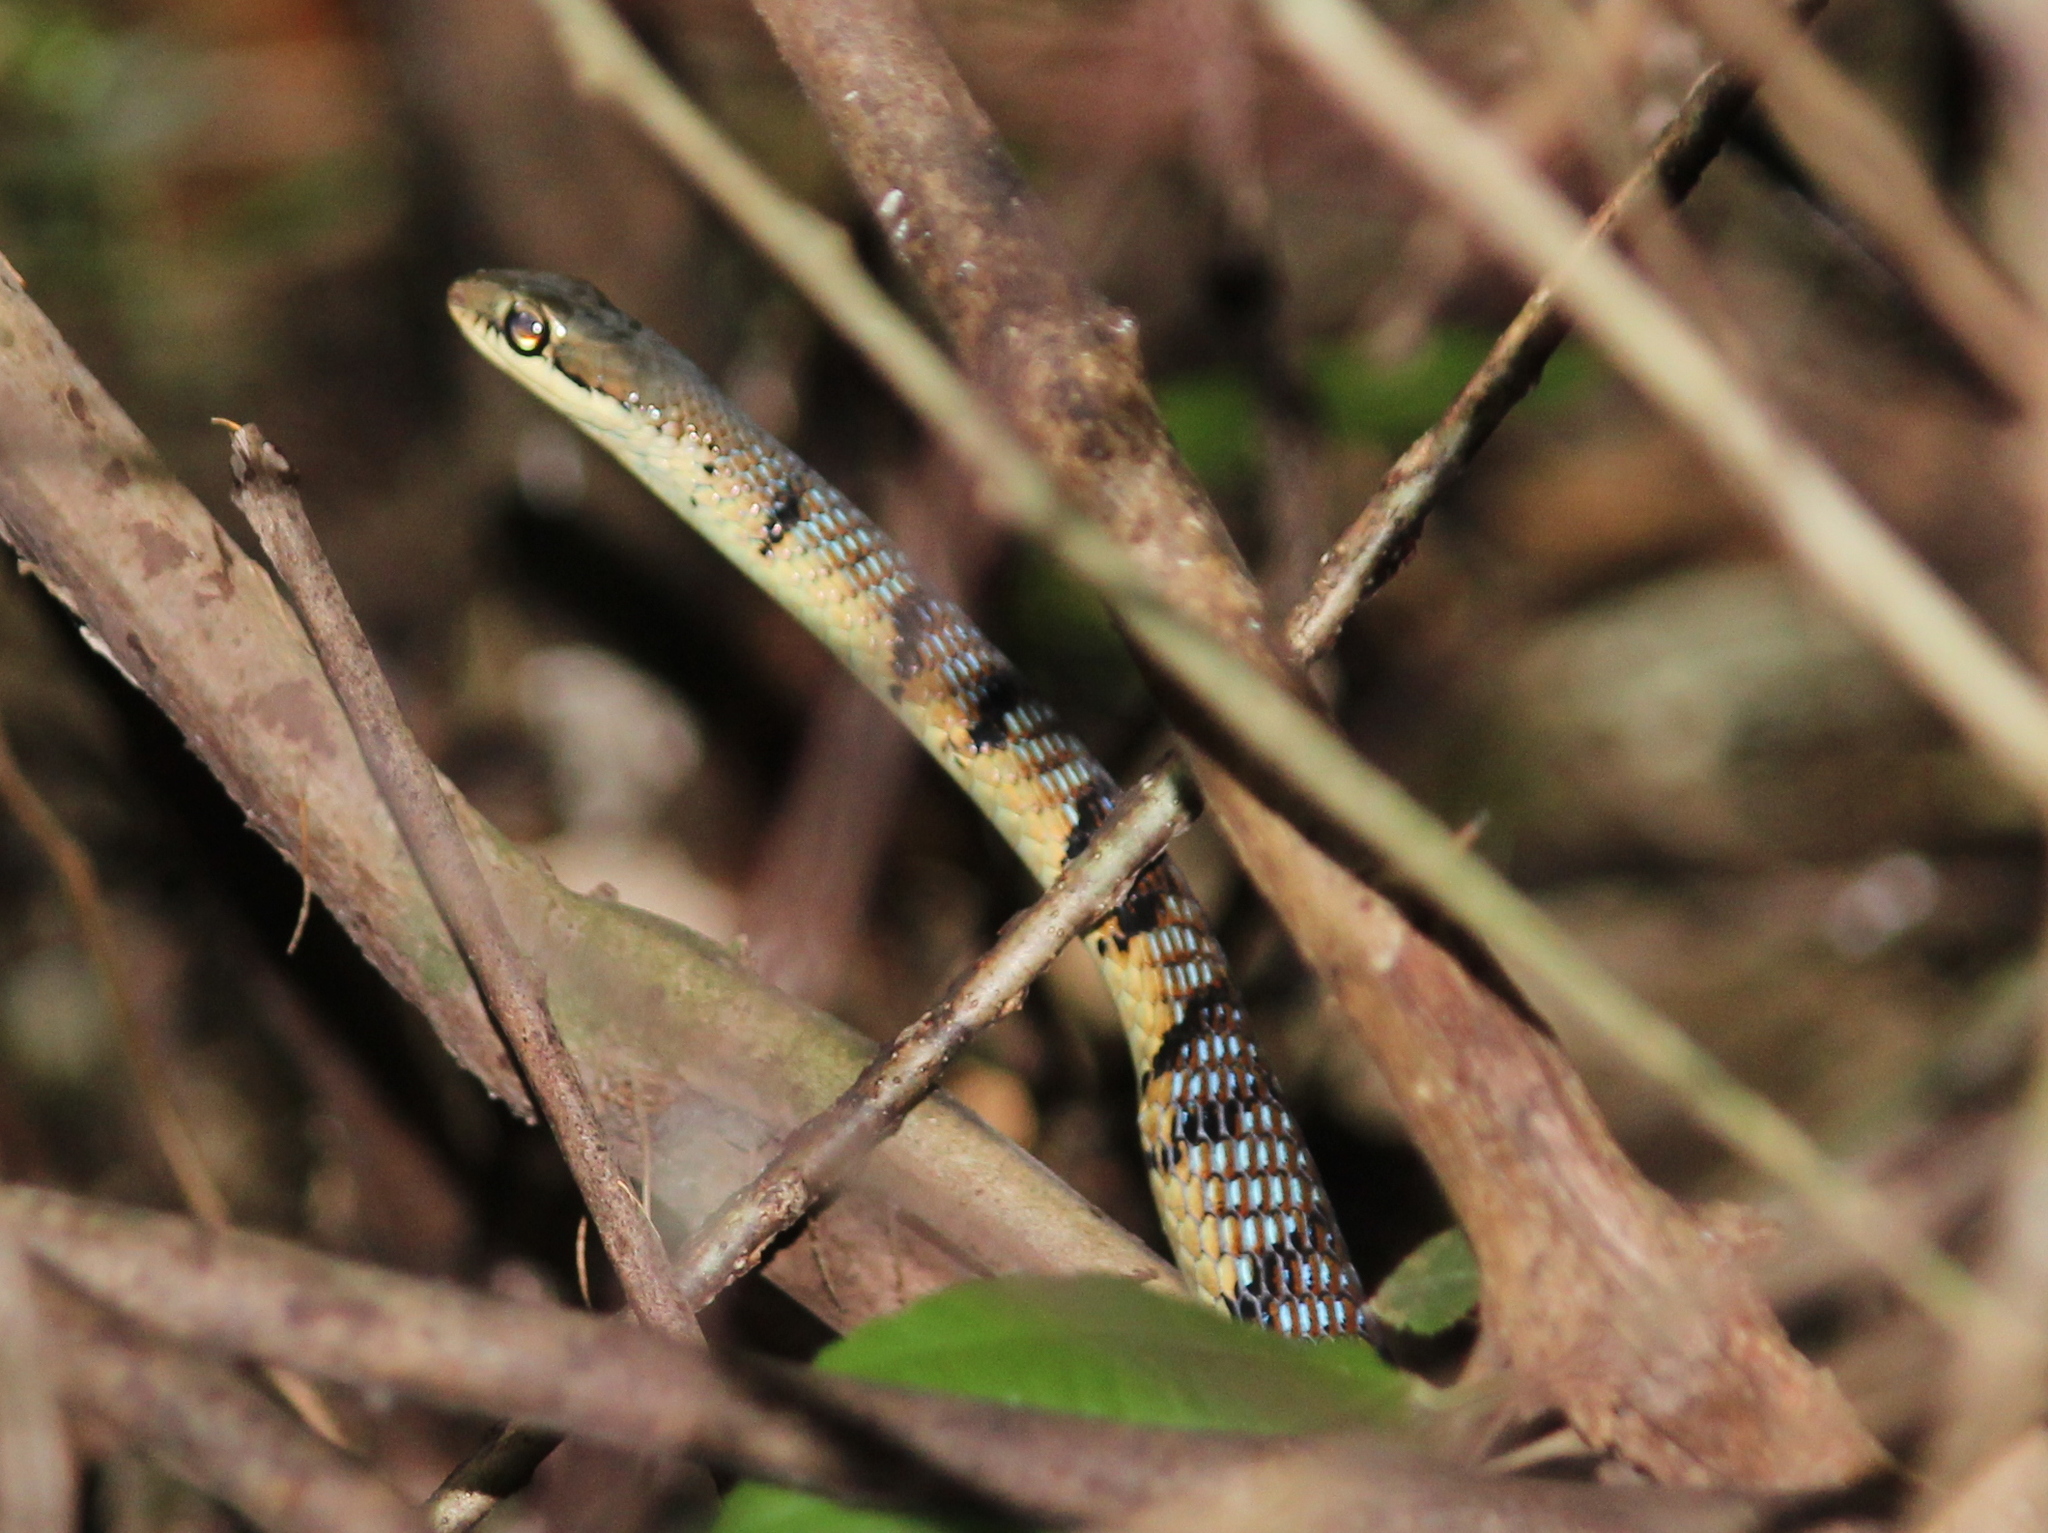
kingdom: Animalia
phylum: Chordata
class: Squamata
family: Colubridae
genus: Dendrelaphis
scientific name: Dendrelaphis chairecacos
